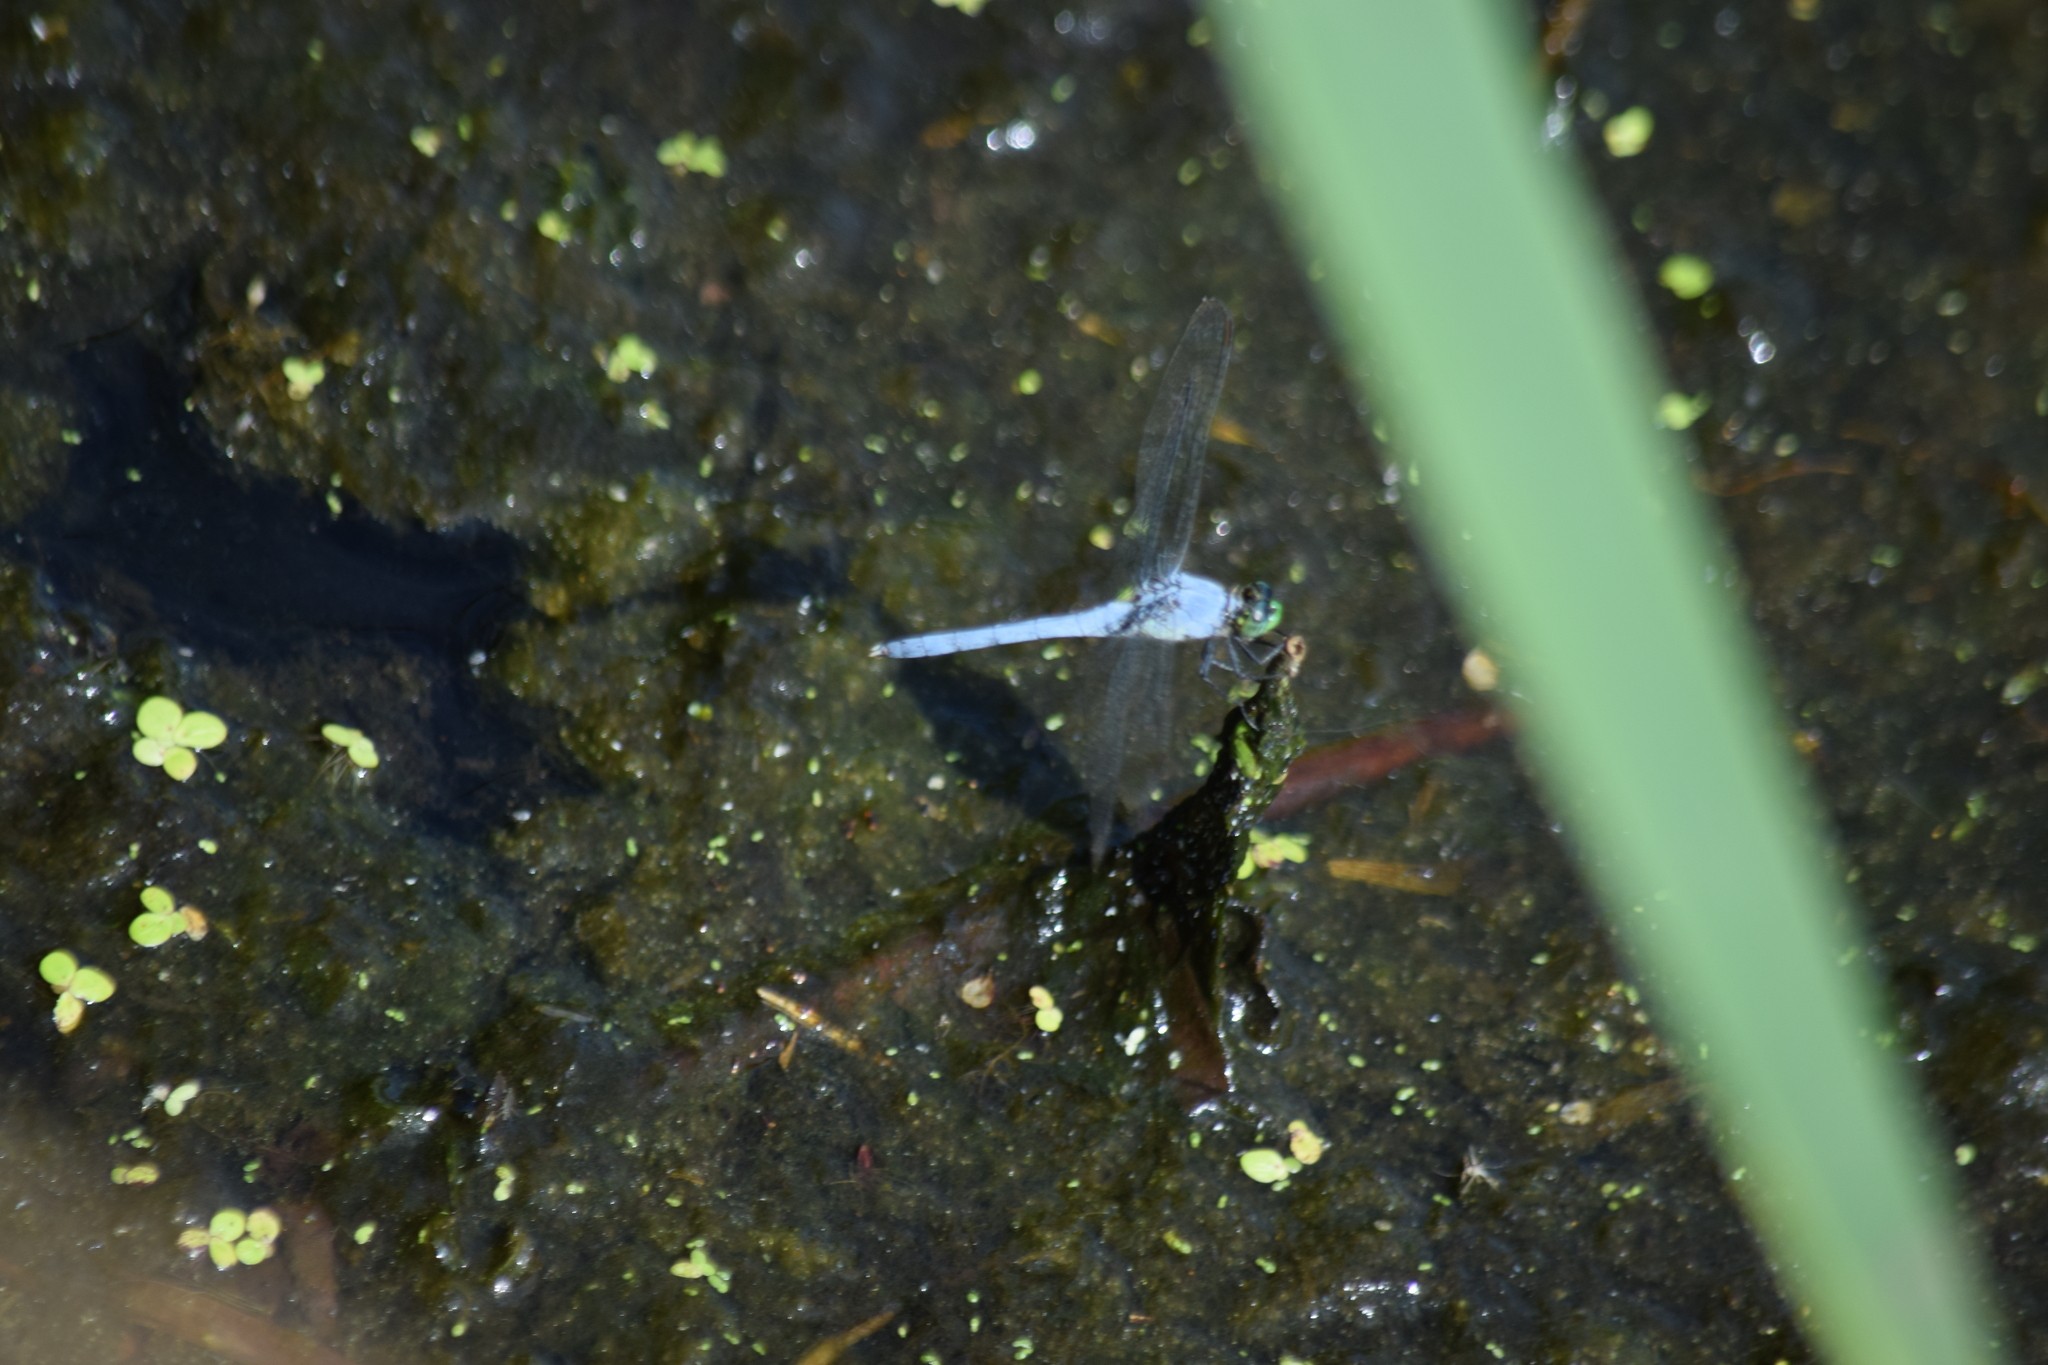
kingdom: Animalia
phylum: Arthropoda
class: Insecta
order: Odonata
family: Libellulidae
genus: Erythemis
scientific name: Erythemis simplicicollis
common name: Eastern pondhawk
